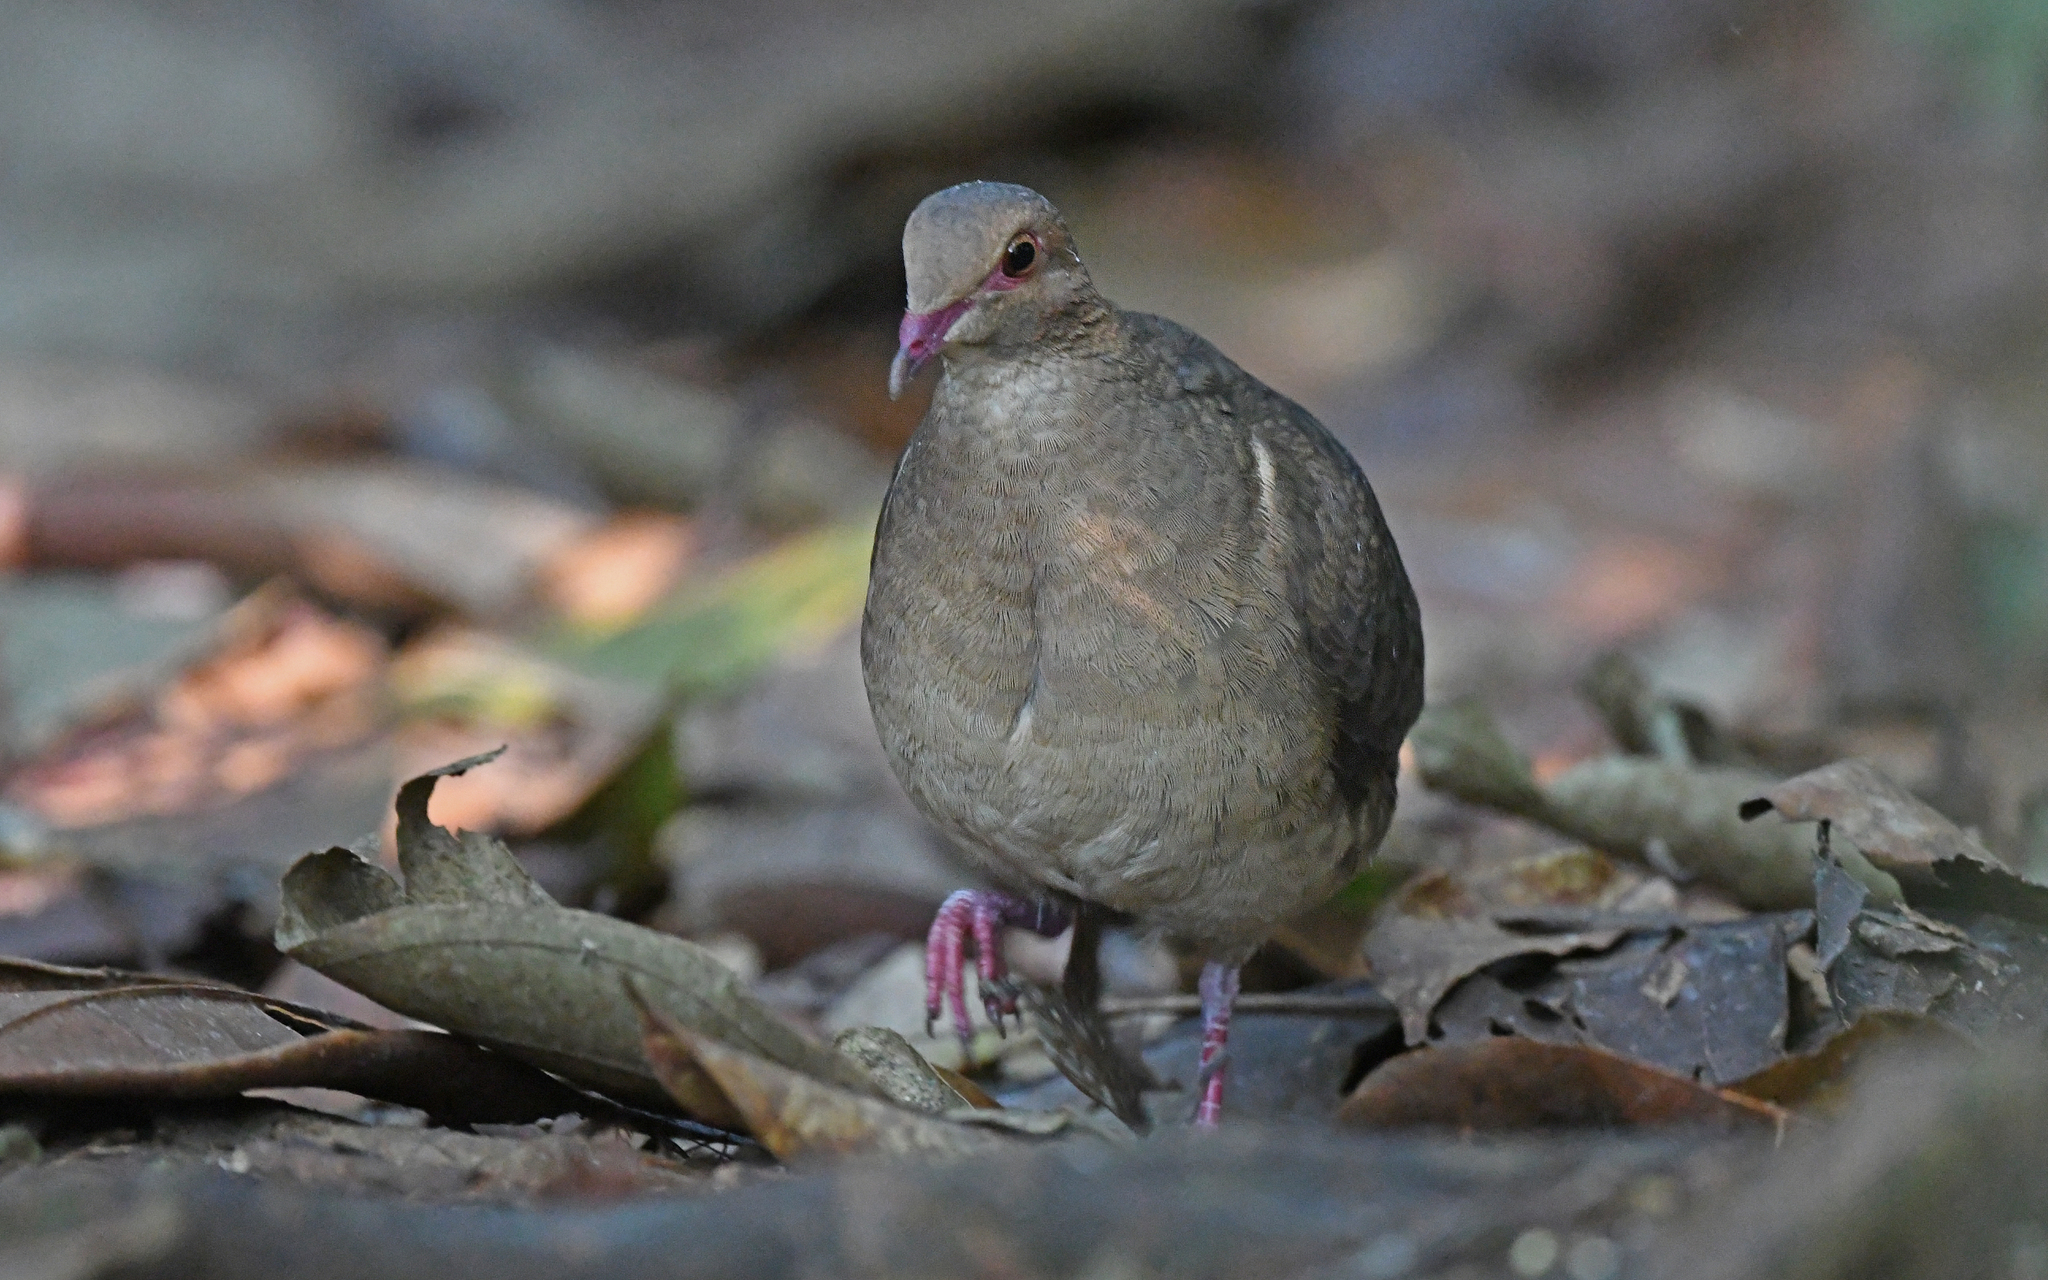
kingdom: Animalia
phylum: Chordata
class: Aves
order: Columbiformes
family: Columbidae
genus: Geotrygon
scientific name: Geotrygon montana
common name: Ruddy quail-dove
